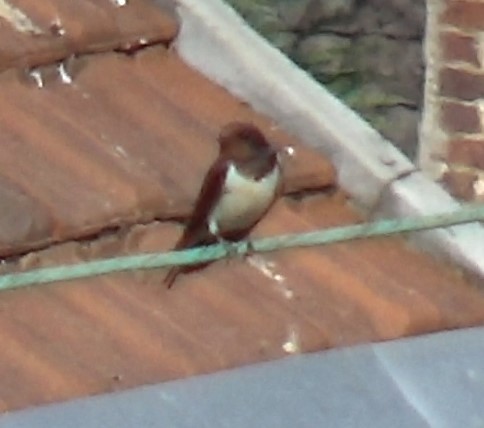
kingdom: Animalia
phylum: Chordata
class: Aves
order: Passeriformes
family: Hirundinidae
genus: Hirundo
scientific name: Hirundo rustica
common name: Barn swallow
